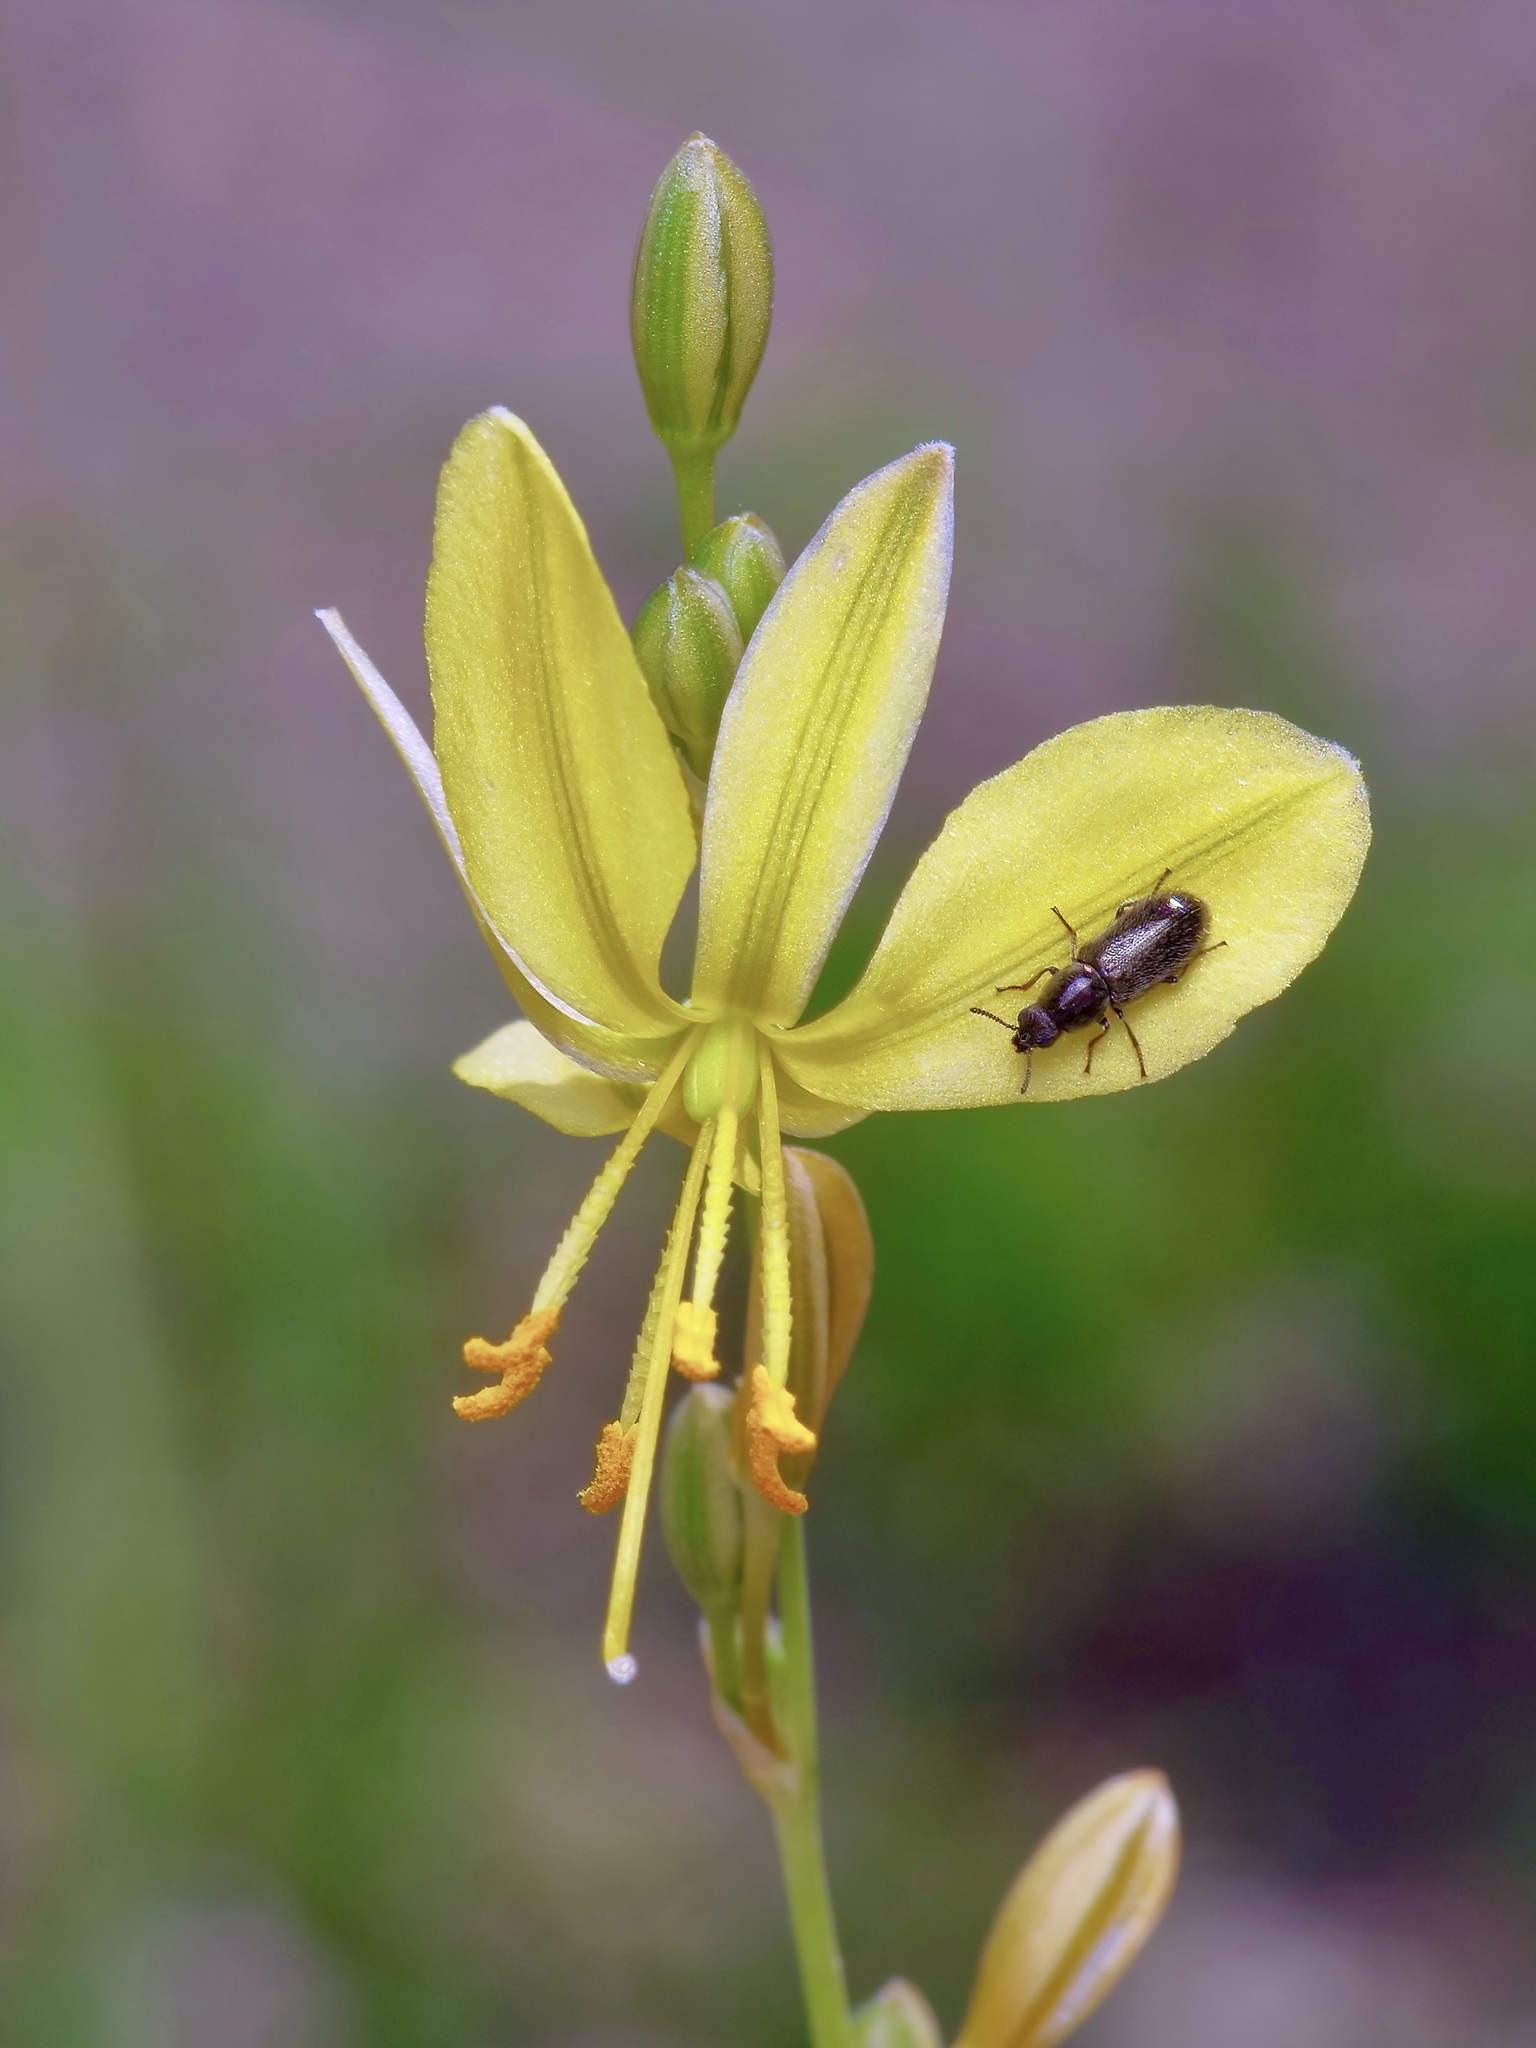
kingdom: Plantae
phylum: Tracheophyta
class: Liliopsida
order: Asparagales
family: Asparagaceae
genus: Echeandia
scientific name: Echeandia flavescens
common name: Amberlily
